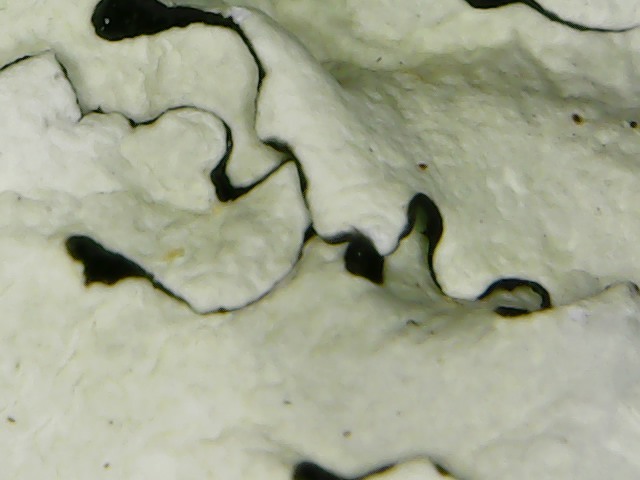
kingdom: Fungi
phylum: Ascomycota
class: Lecanoromycetes
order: Lecanorales
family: Parmeliaceae
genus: Flavoparmelia
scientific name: Flavoparmelia caperata
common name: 40-mile per hour lichen
